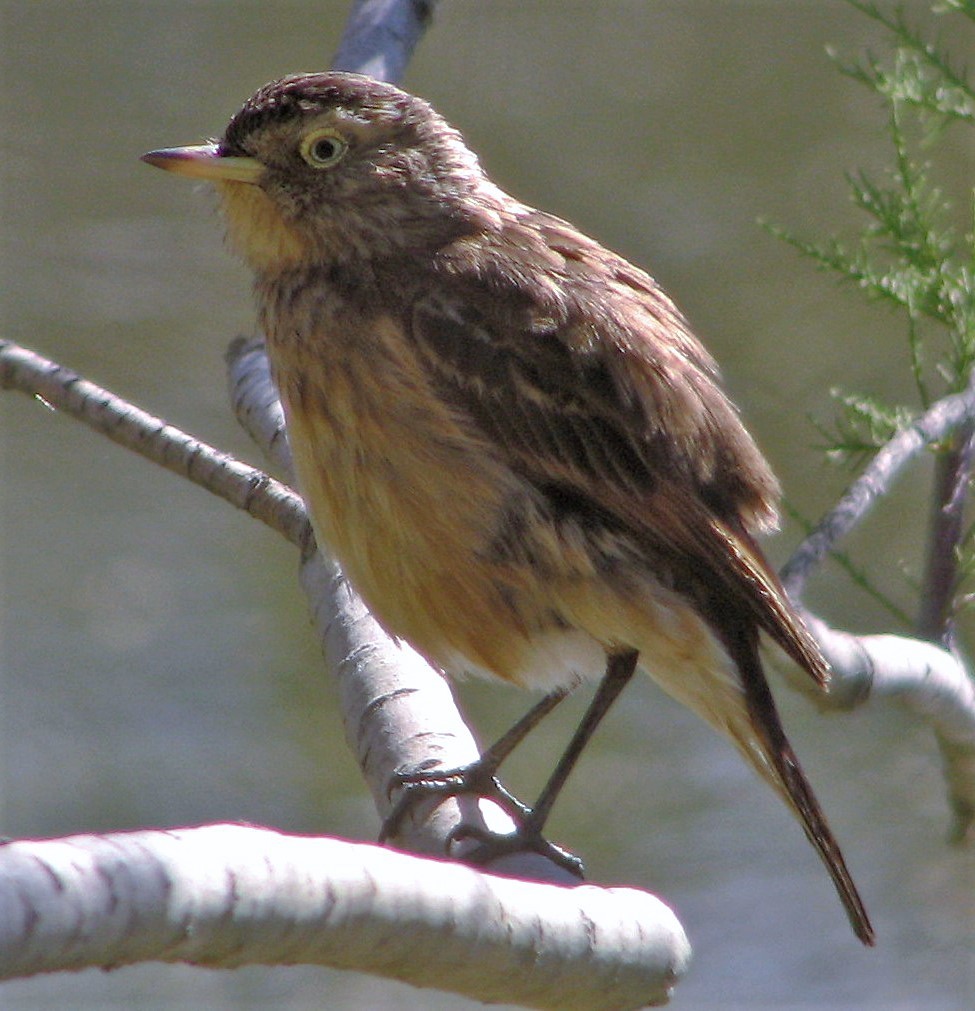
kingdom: Animalia
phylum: Chordata
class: Aves
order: Passeriformes
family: Tyrannidae
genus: Hymenops
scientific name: Hymenops perspicillatus
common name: Spectacled tyrant
